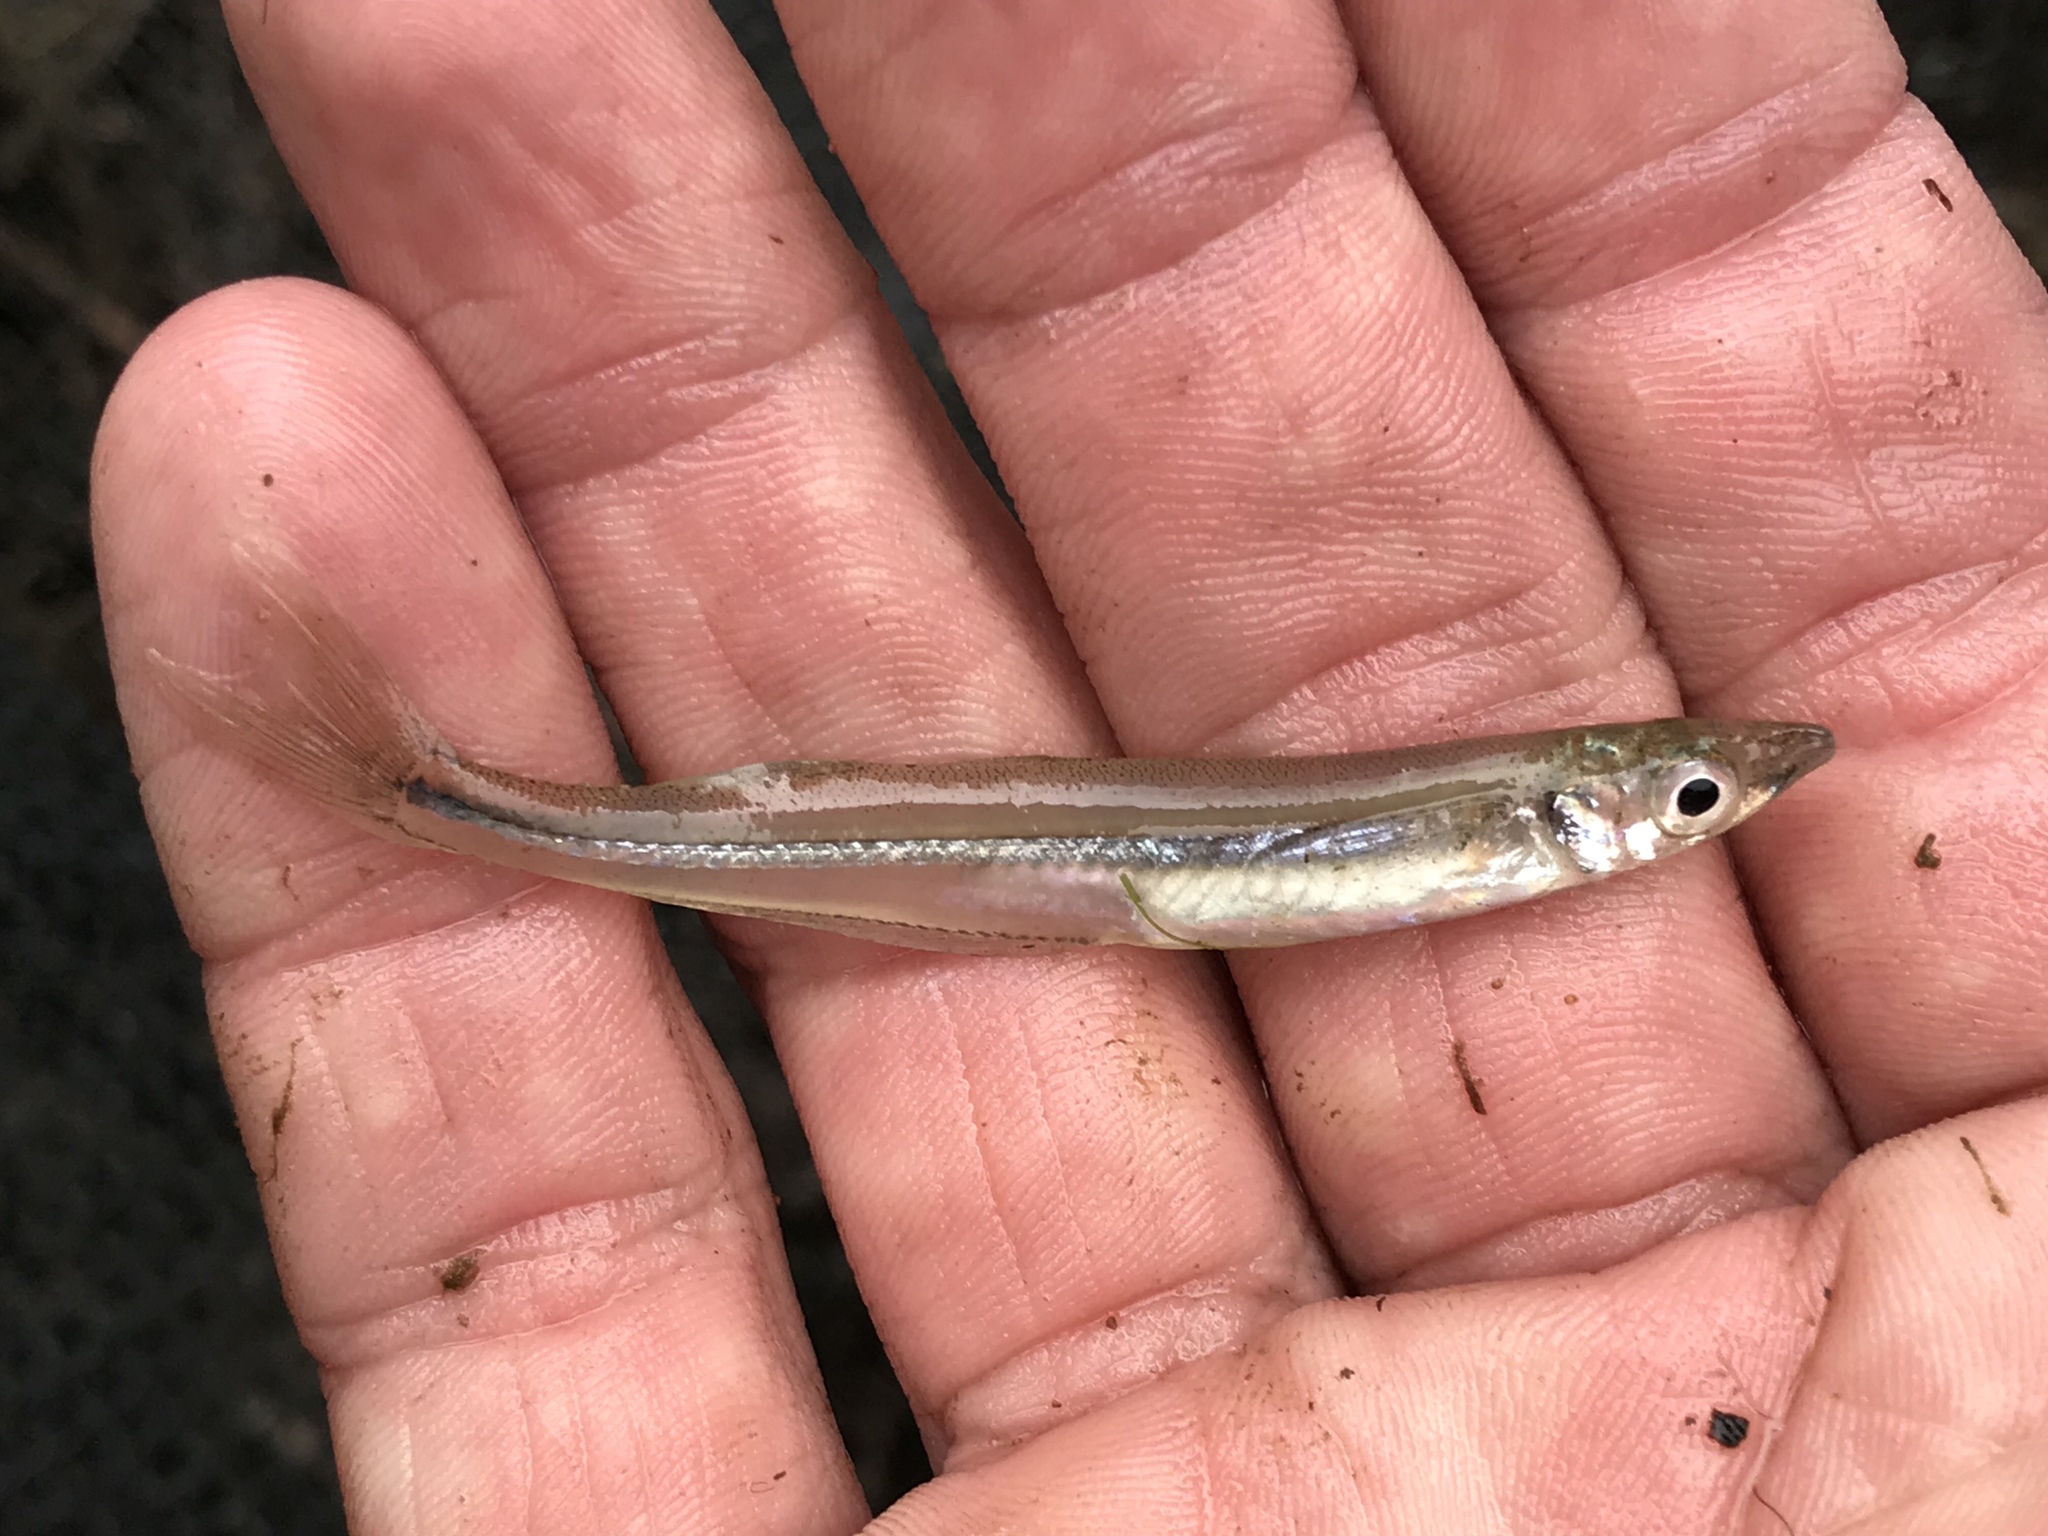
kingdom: Animalia
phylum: Chordata
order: Atheriniformes
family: Atherinopsidae
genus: Menidia
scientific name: Menidia beryllina
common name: Inland silverside
